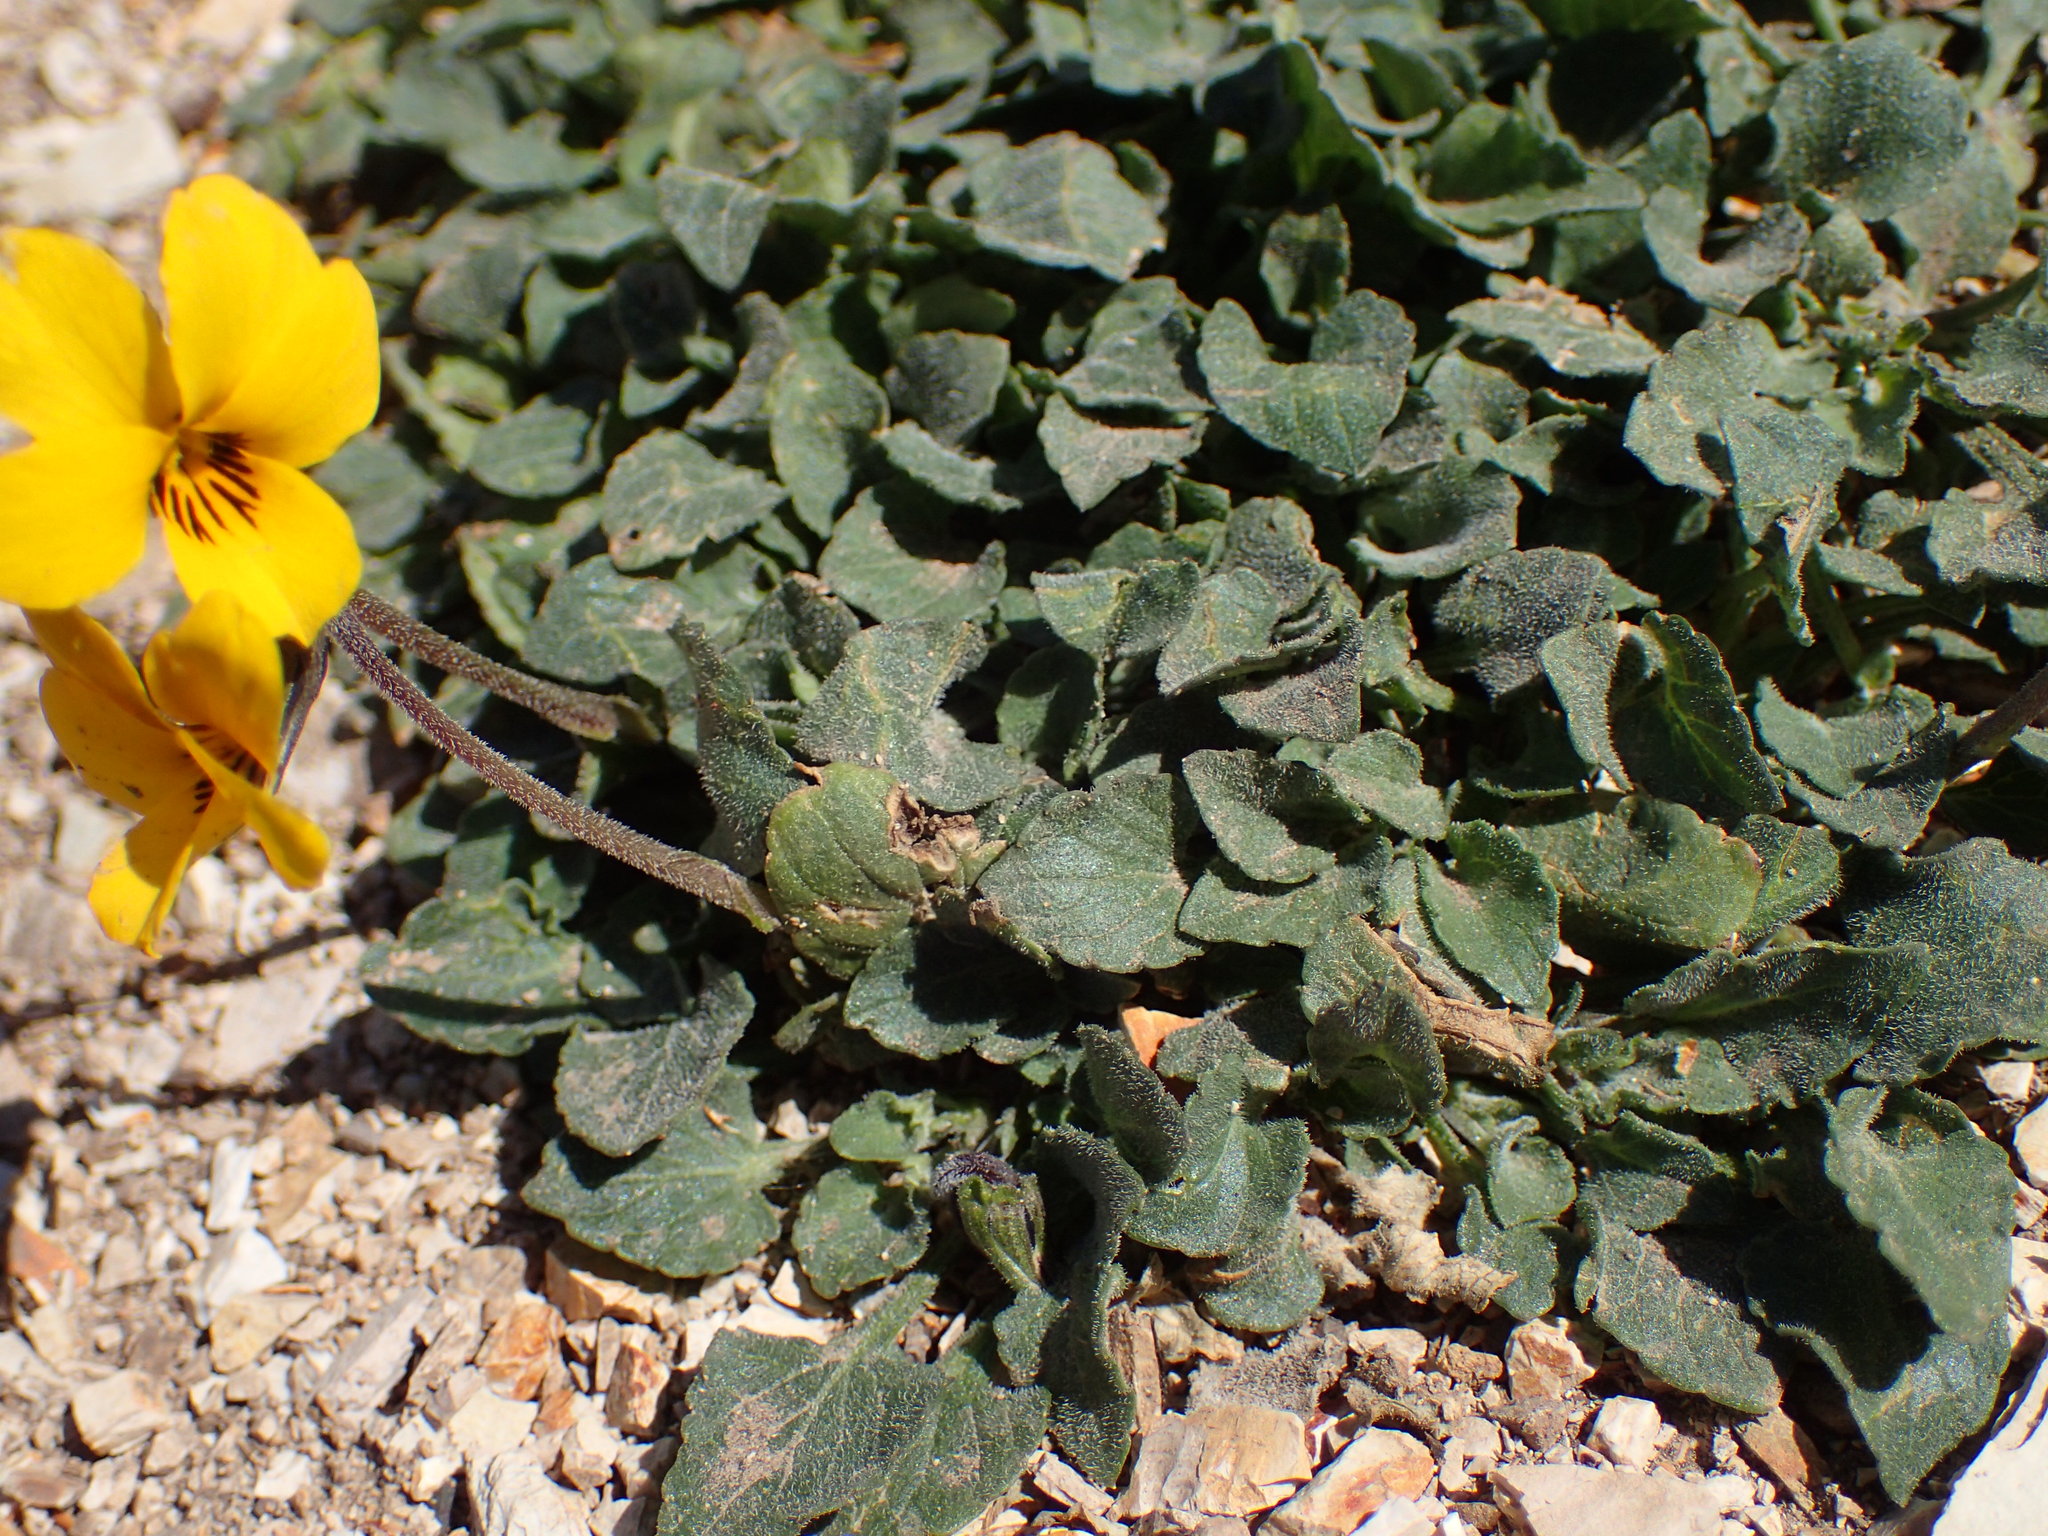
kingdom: Plantae
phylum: Tracheophyta
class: Magnoliopsida
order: Malpighiales
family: Violaceae
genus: Viola
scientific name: Viola pedunculata
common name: California golden violet
